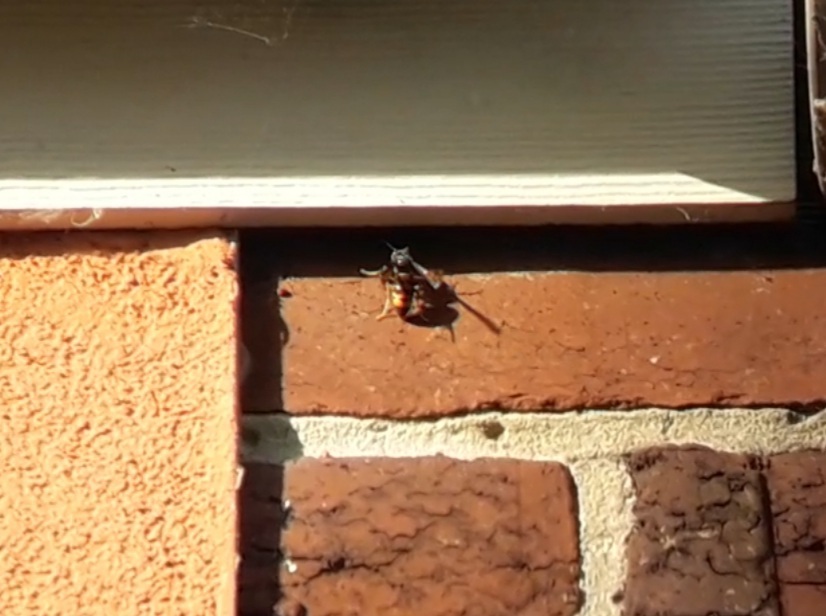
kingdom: Animalia
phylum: Arthropoda
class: Insecta
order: Hymenoptera
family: Vespidae
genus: Vespa
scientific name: Vespa velutina
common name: Asian hornet
